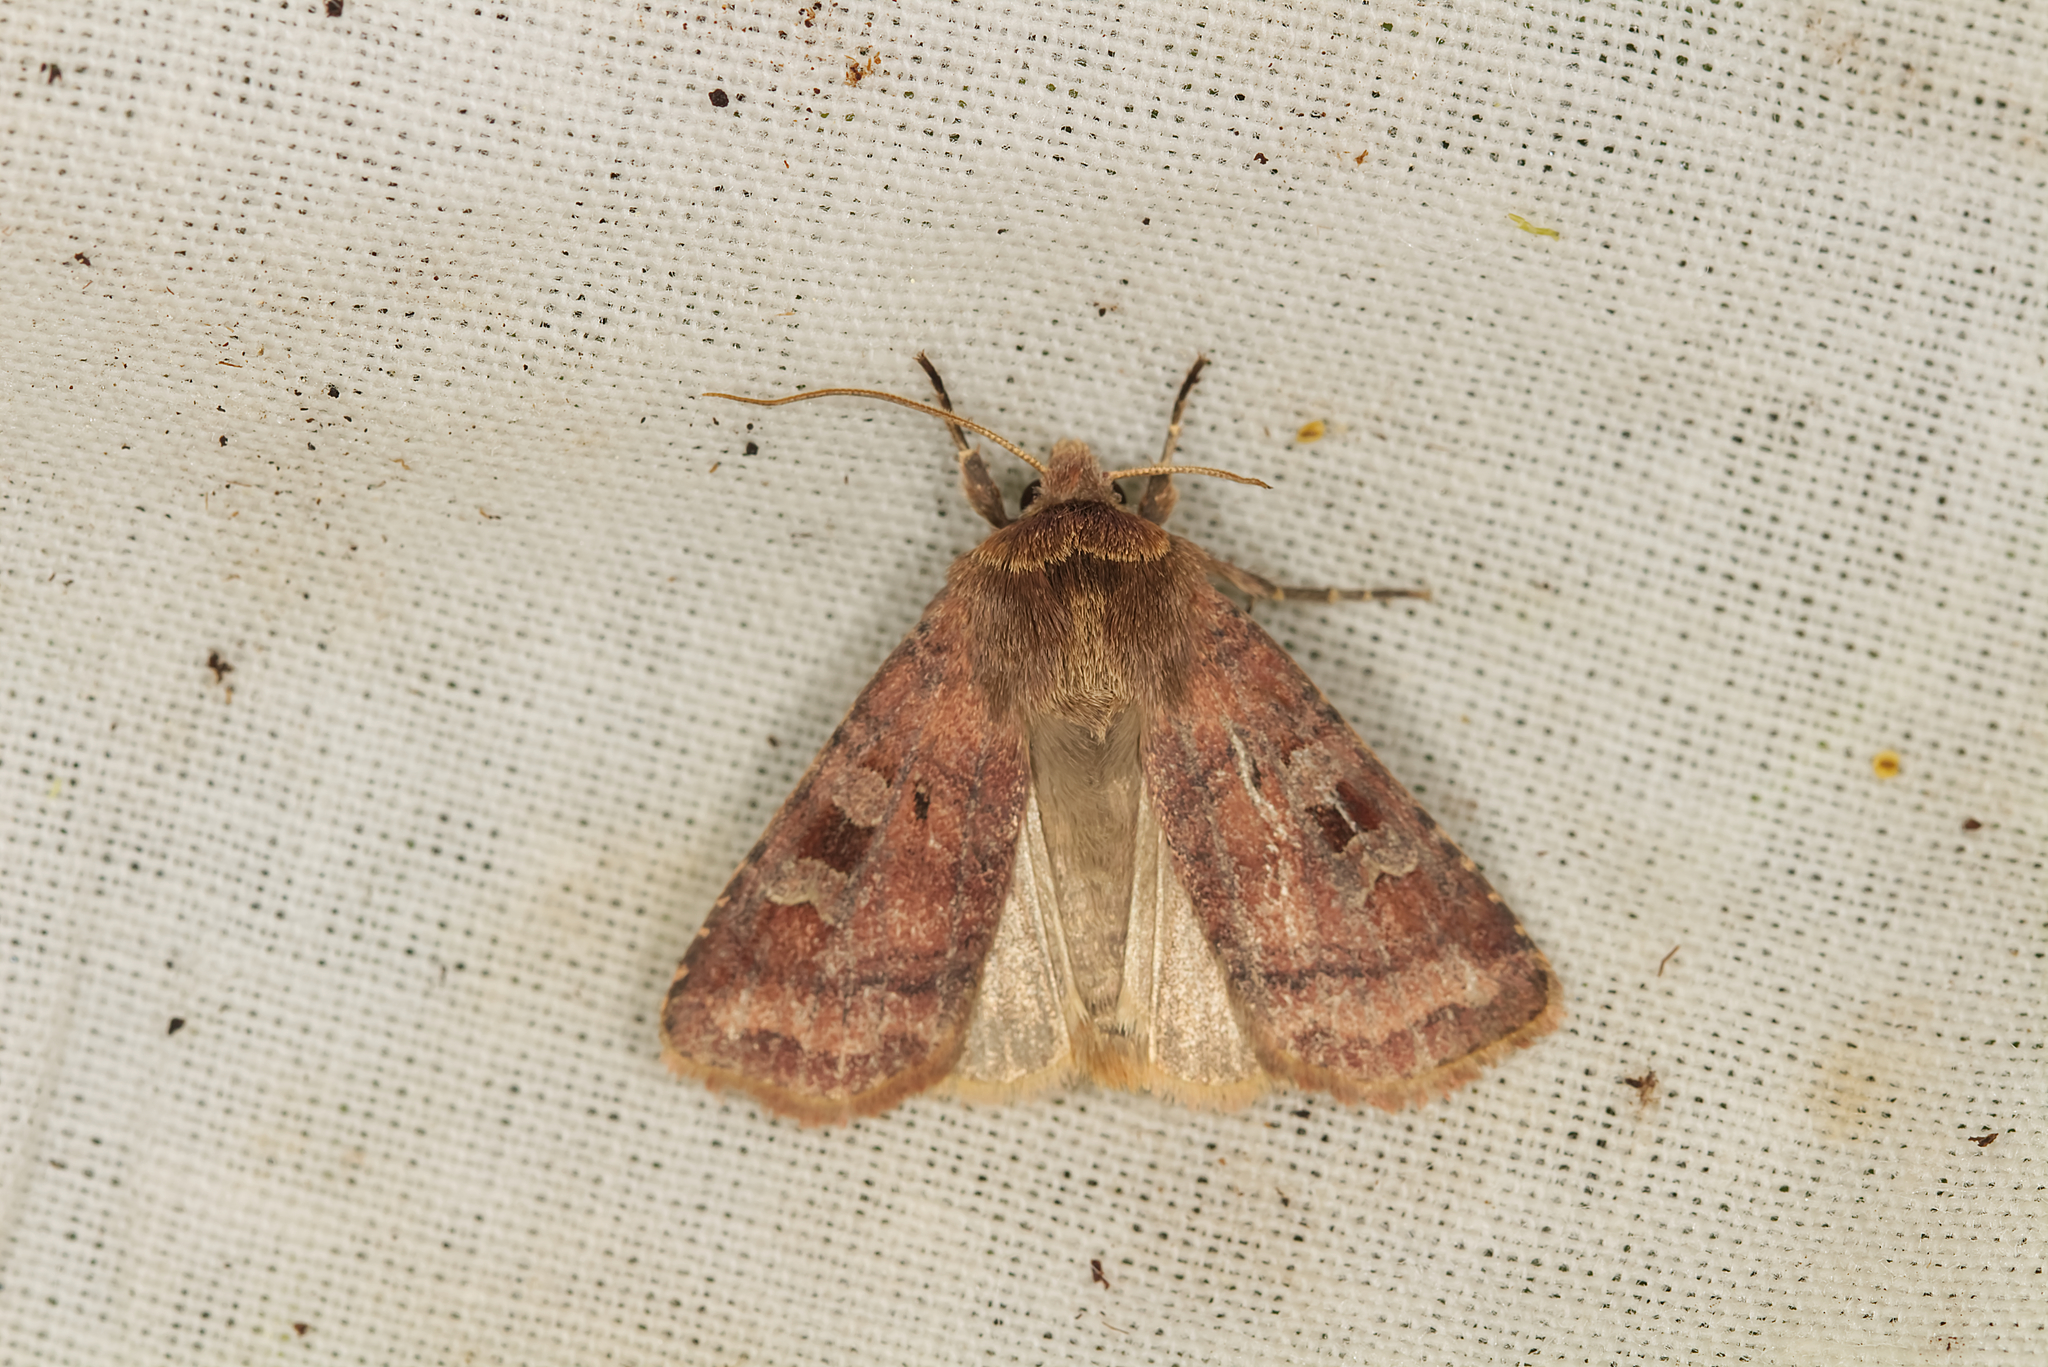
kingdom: Animalia
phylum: Arthropoda
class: Insecta
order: Lepidoptera
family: Noctuidae
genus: Diarsia
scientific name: Diarsia rubi
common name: Small square-spot
